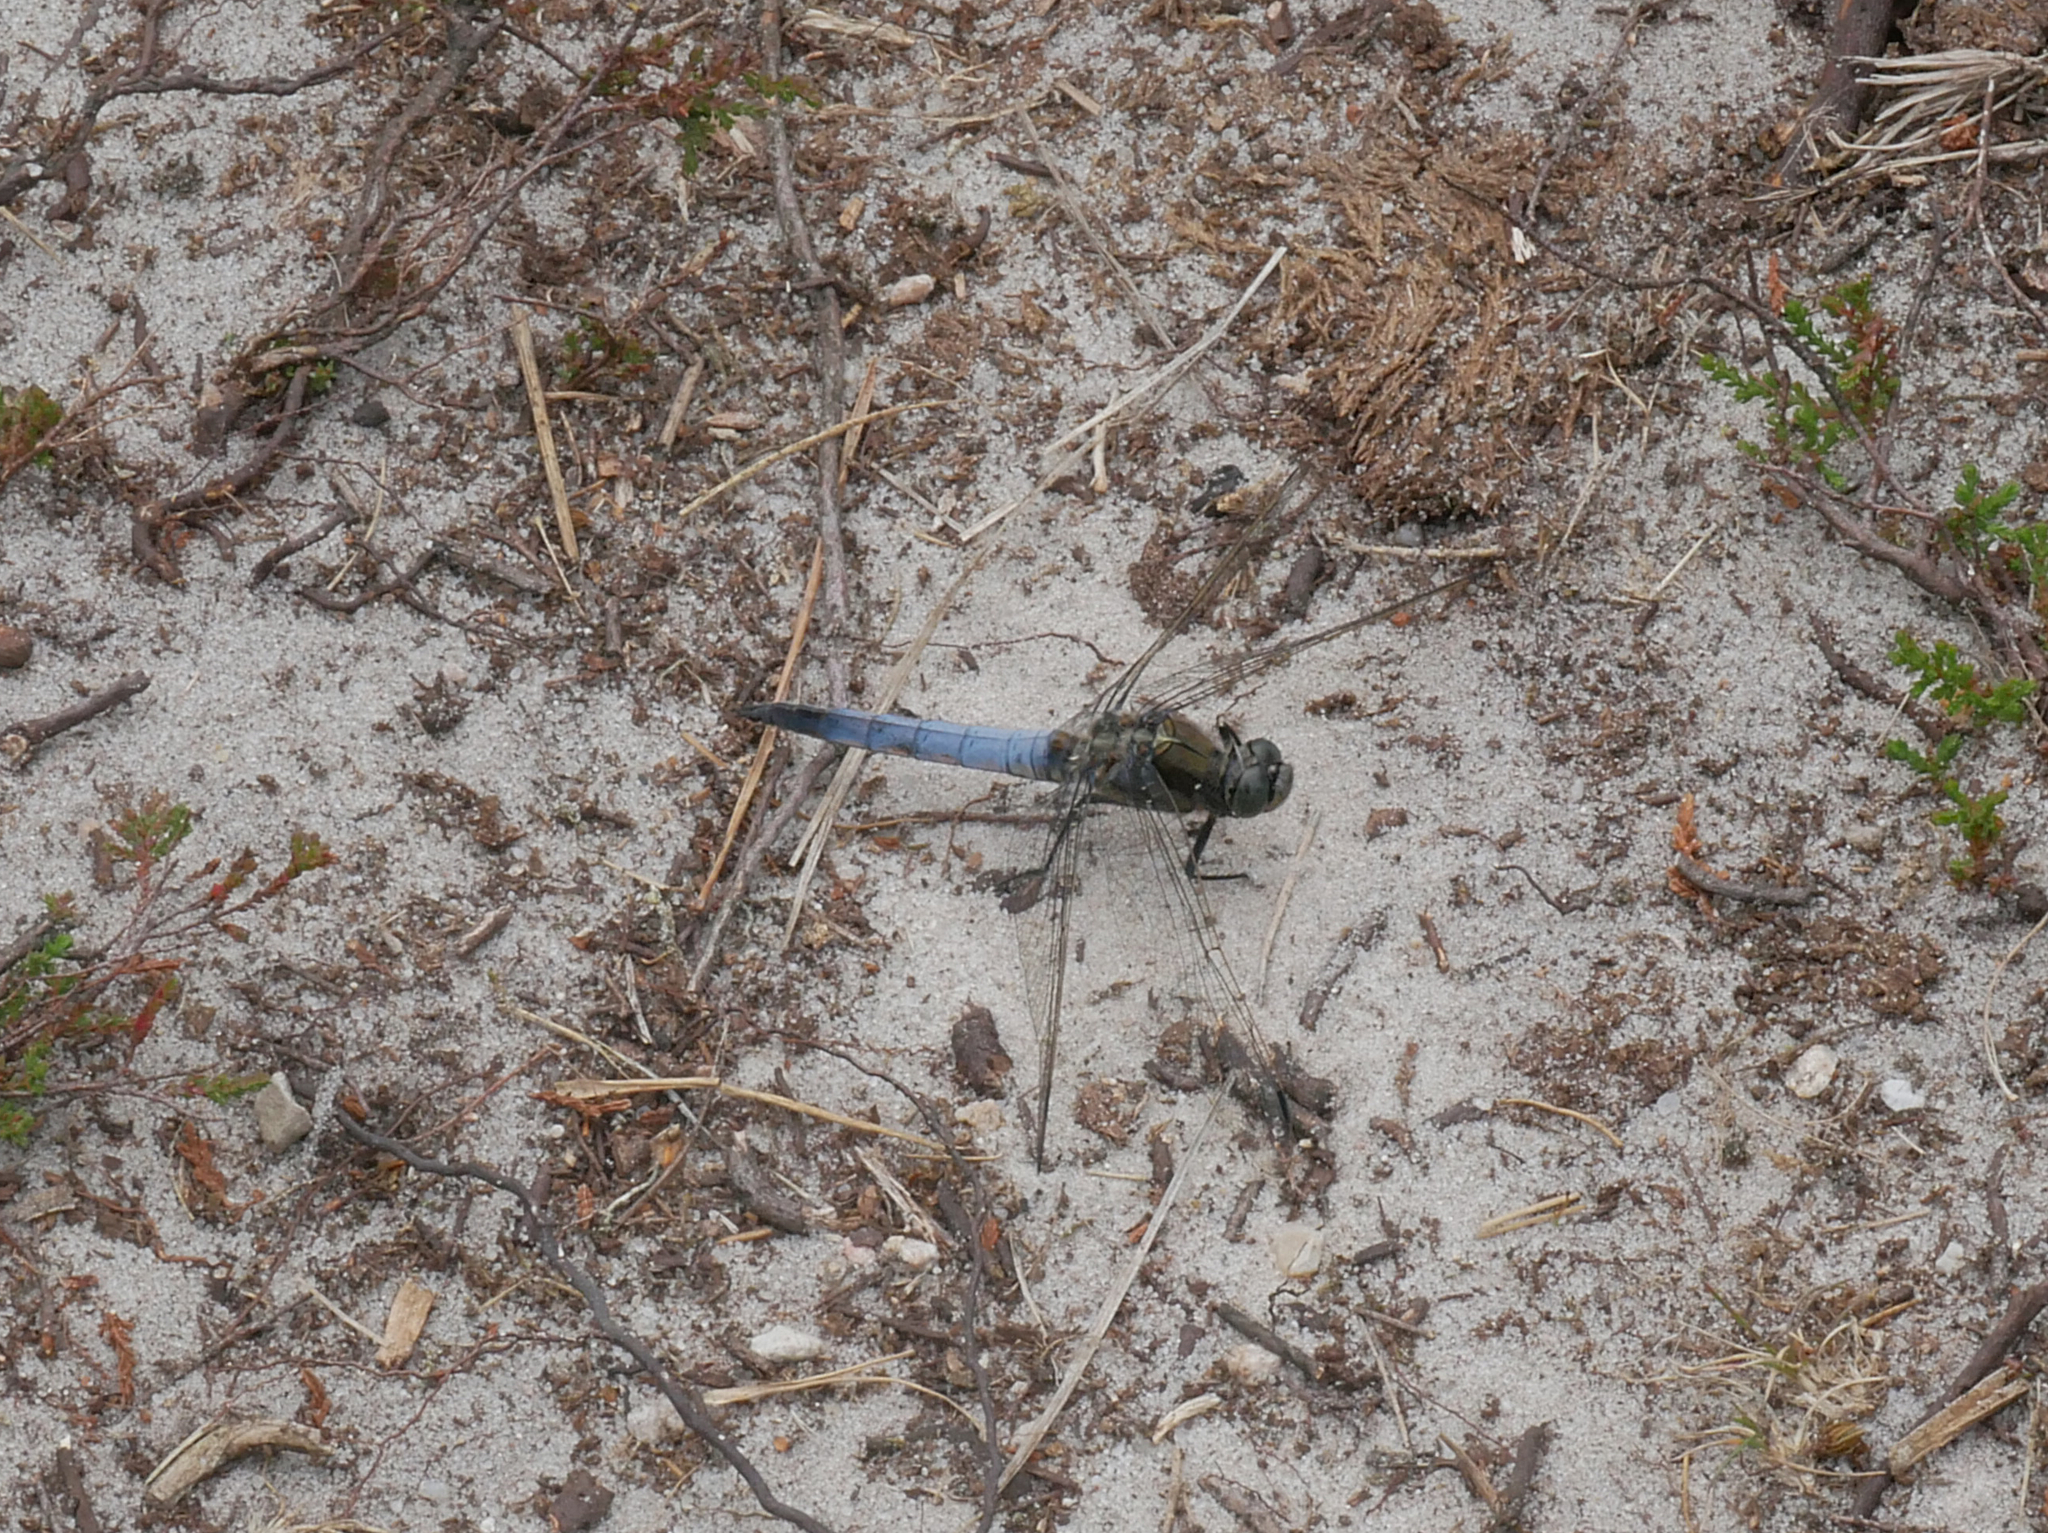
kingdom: Animalia
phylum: Arthropoda
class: Insecta
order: Odonata
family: Libellulidae
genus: Orthetrum
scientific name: Orthetrum cancellatum
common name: Black-tailed skimmer
